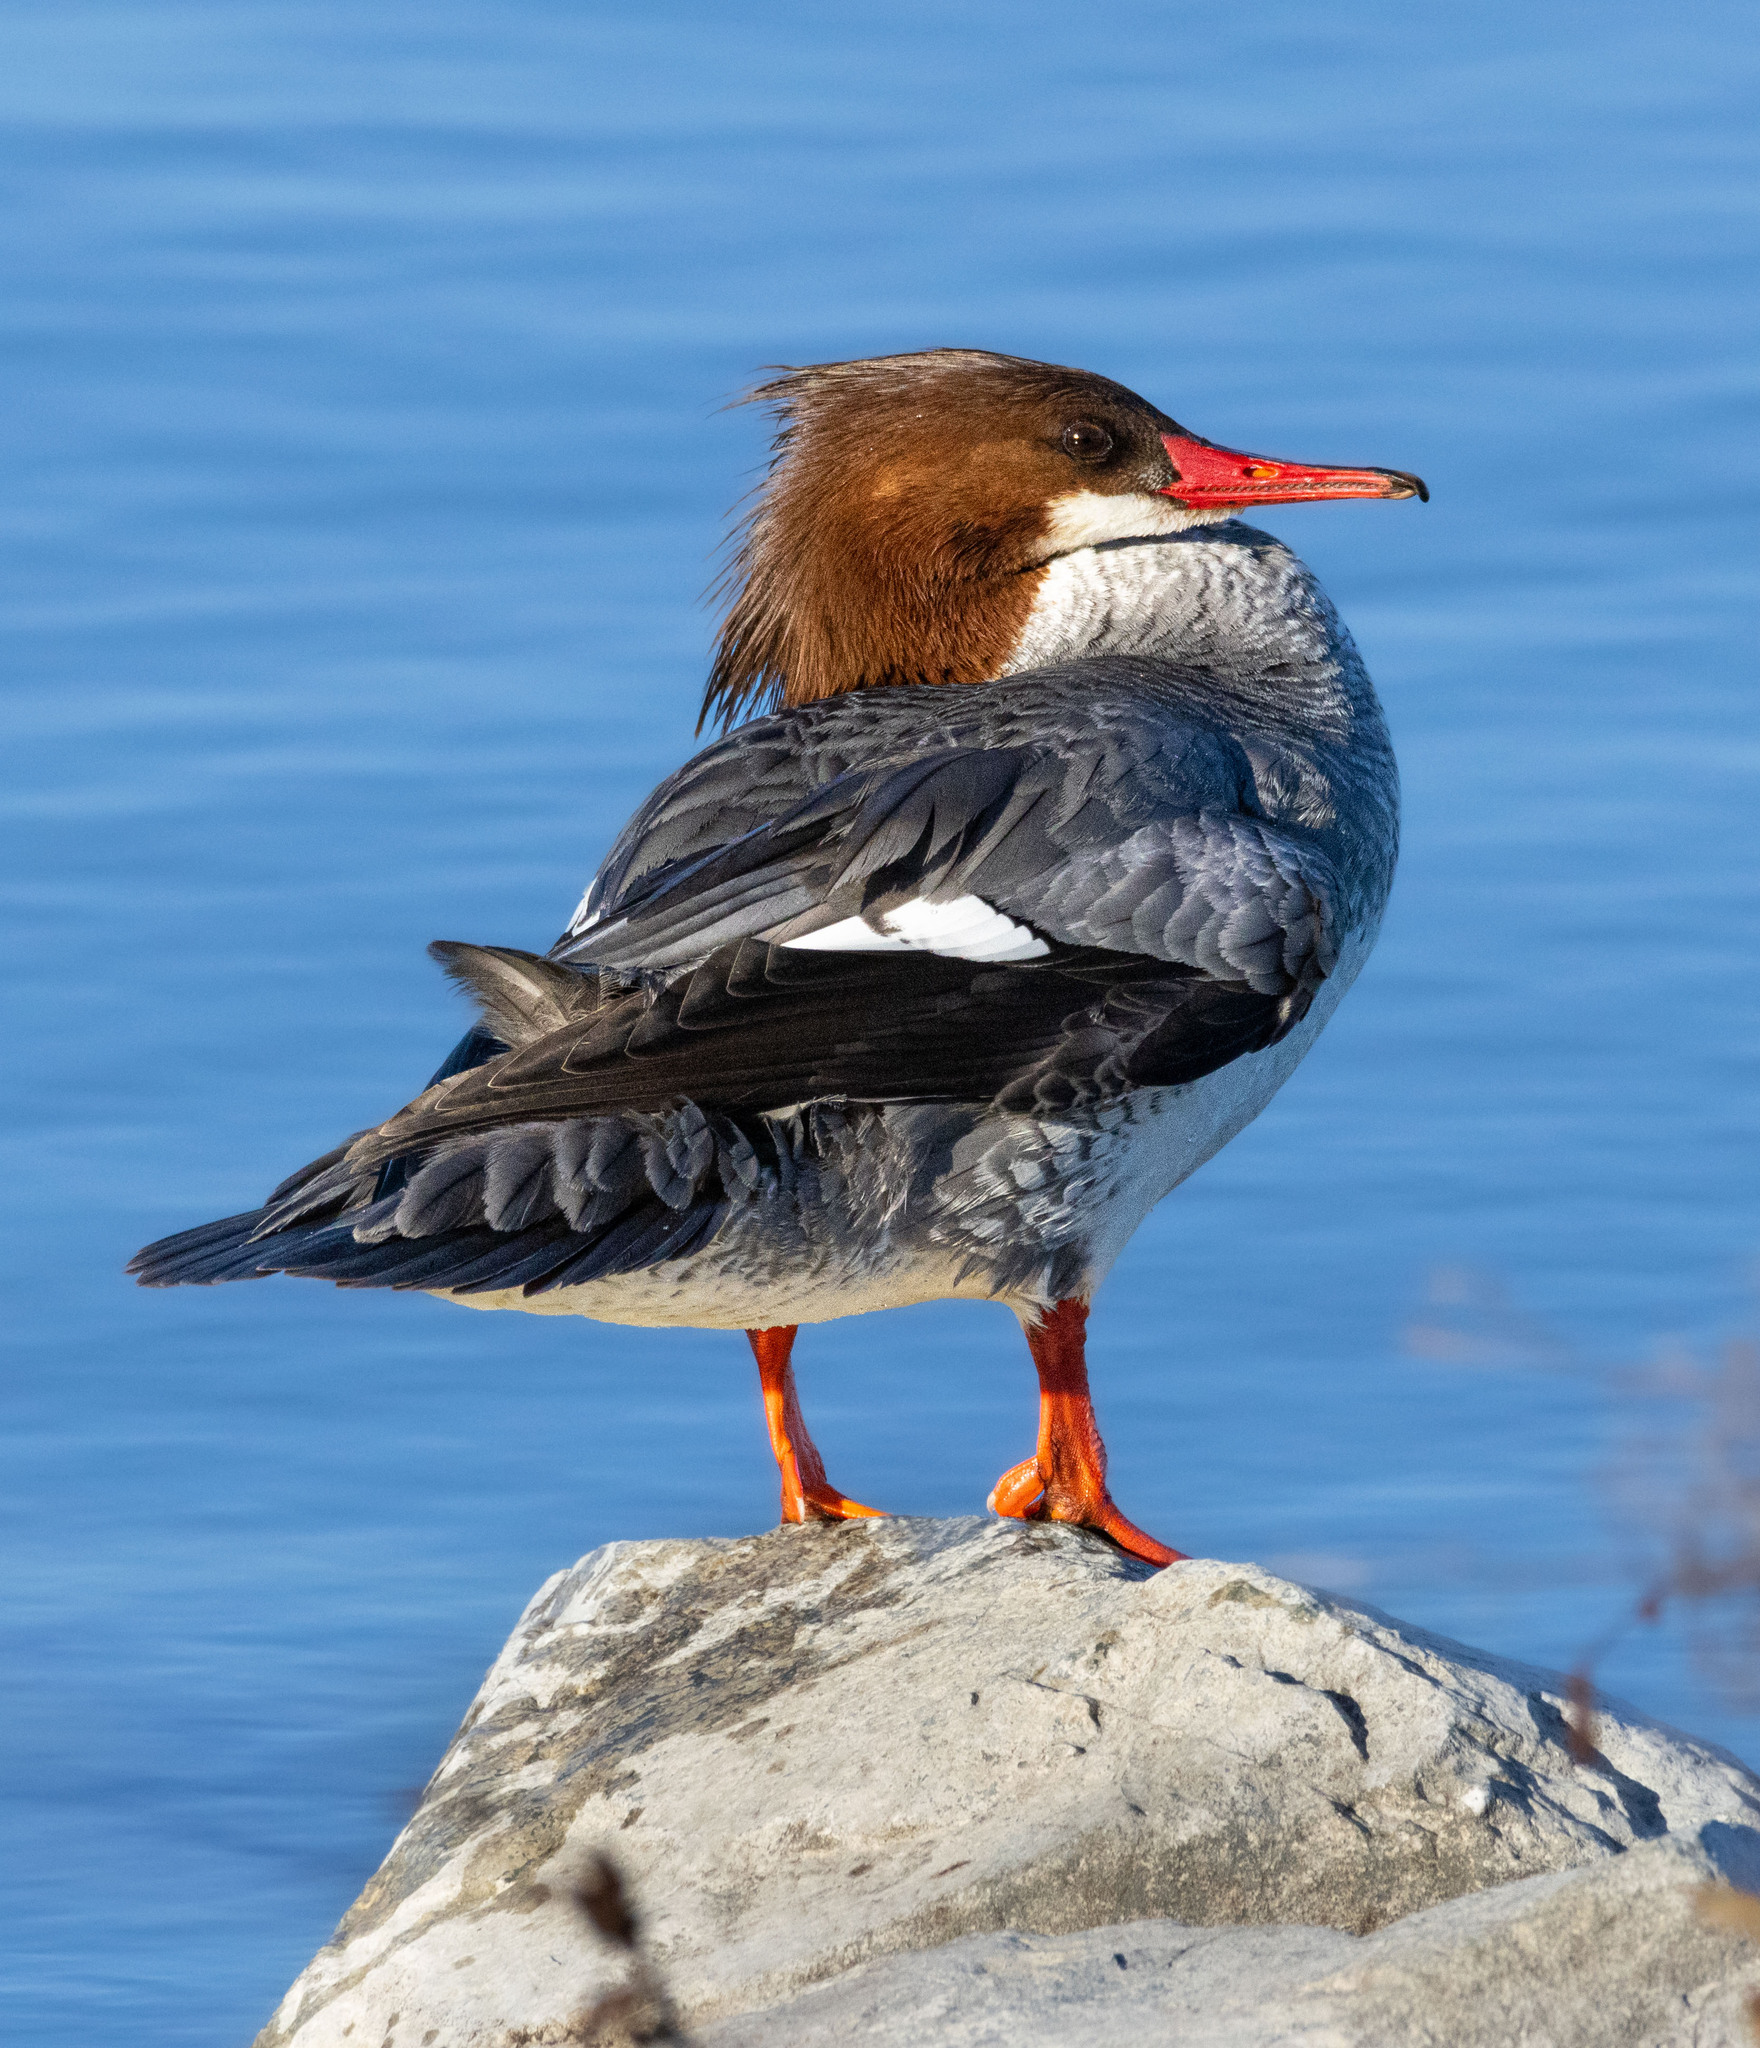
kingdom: Animalia
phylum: Chordata
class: Aves
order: Anseriformes
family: Anatidae
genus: Mergus
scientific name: Mergus merganser
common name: Common merganser
